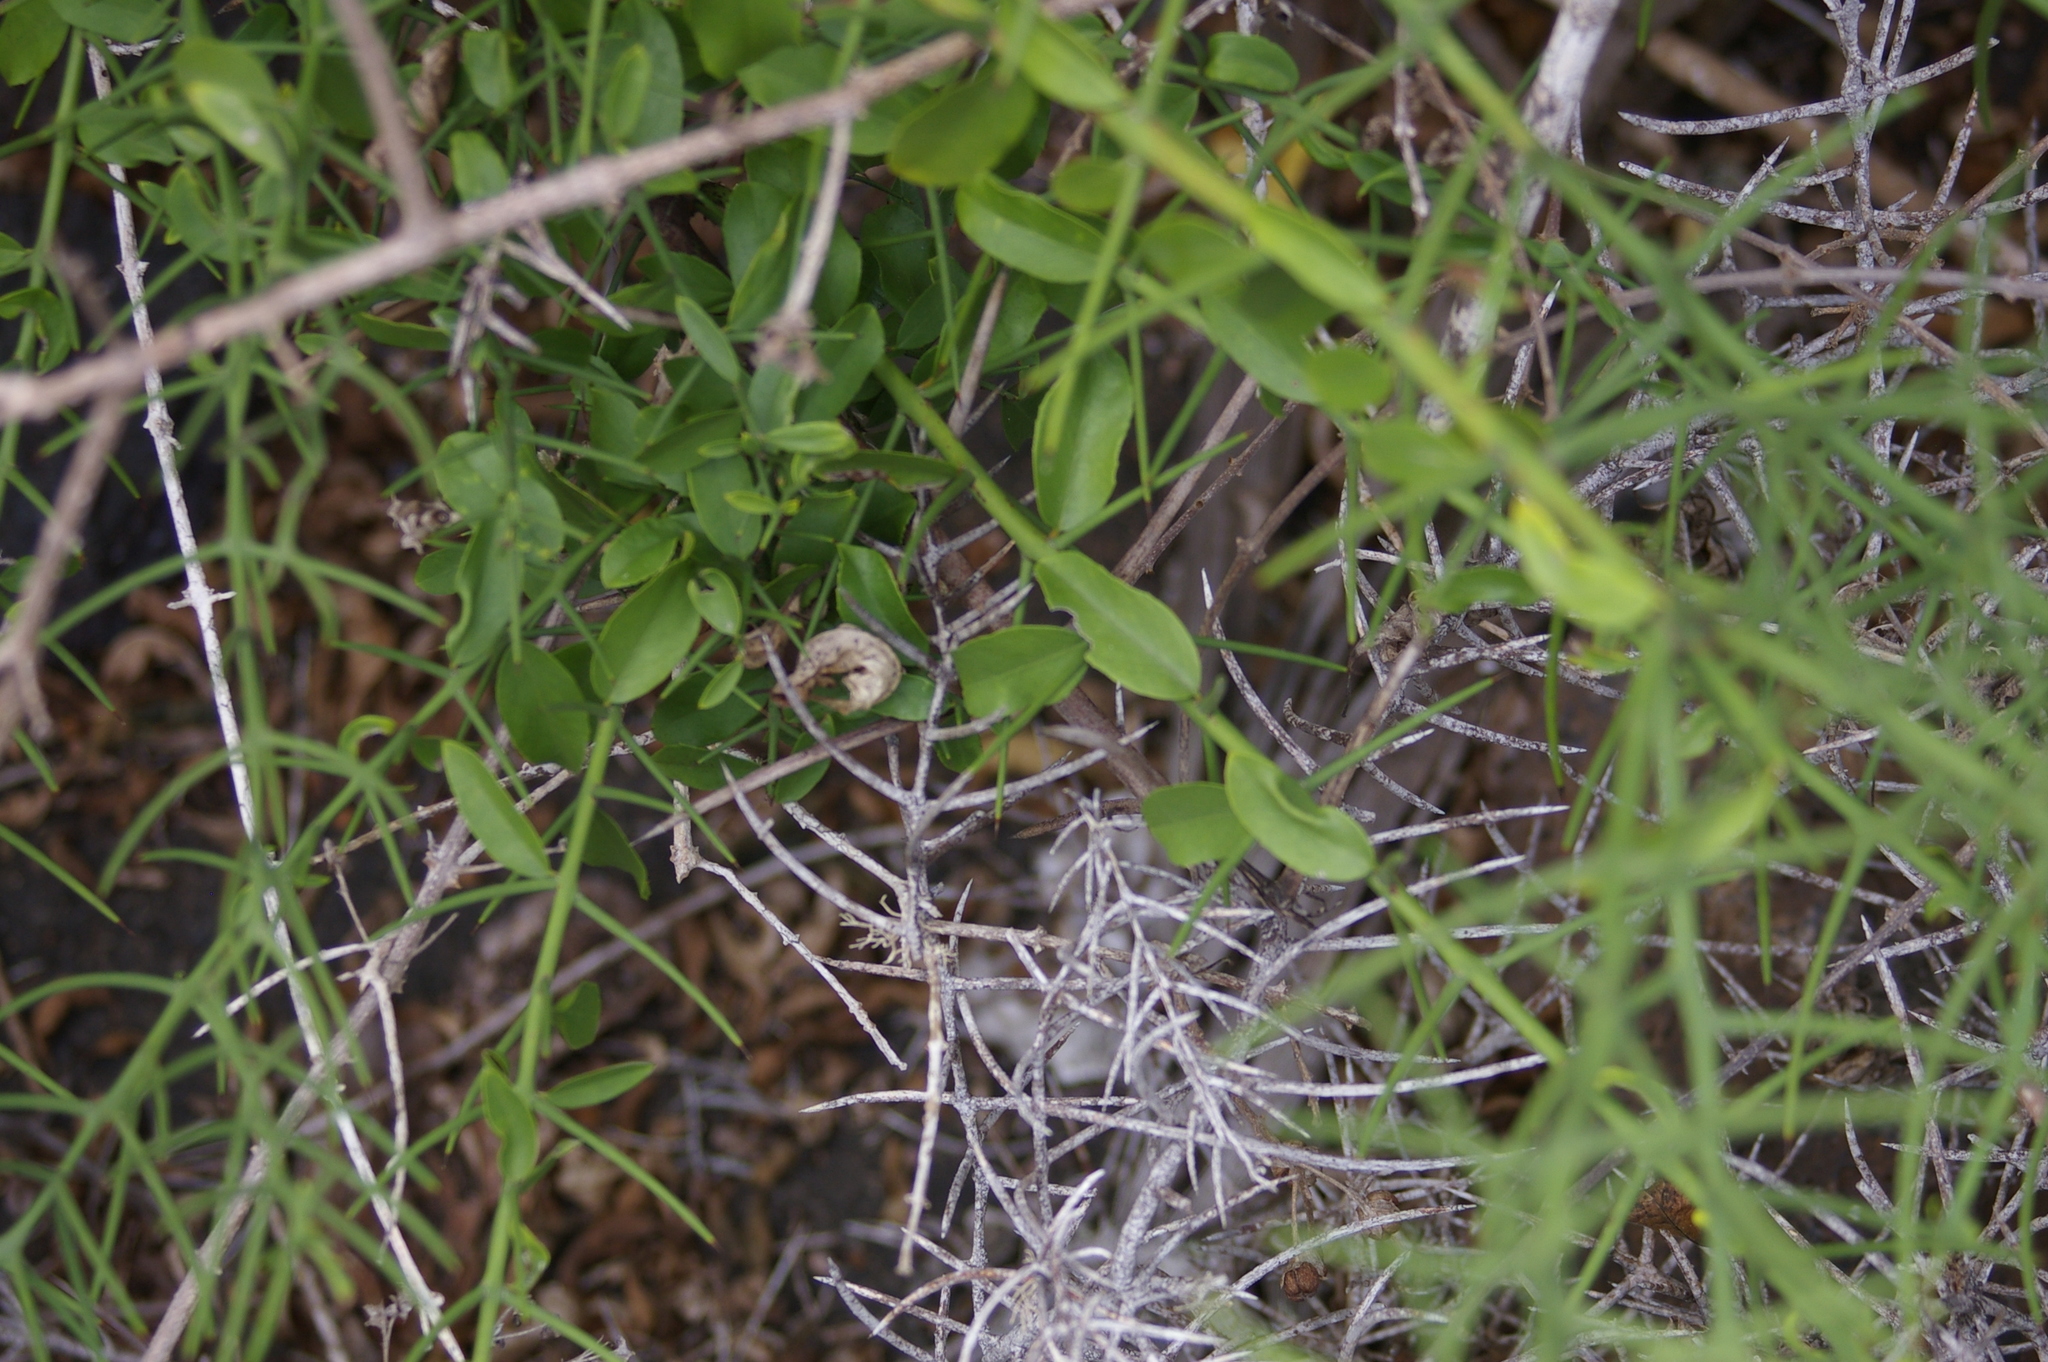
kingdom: Plantae
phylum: Tracheophyta
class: Magnoliopsida
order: Rosales
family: Rhamnaceae
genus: Scutia
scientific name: Scutia spicata
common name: Spiny bush
